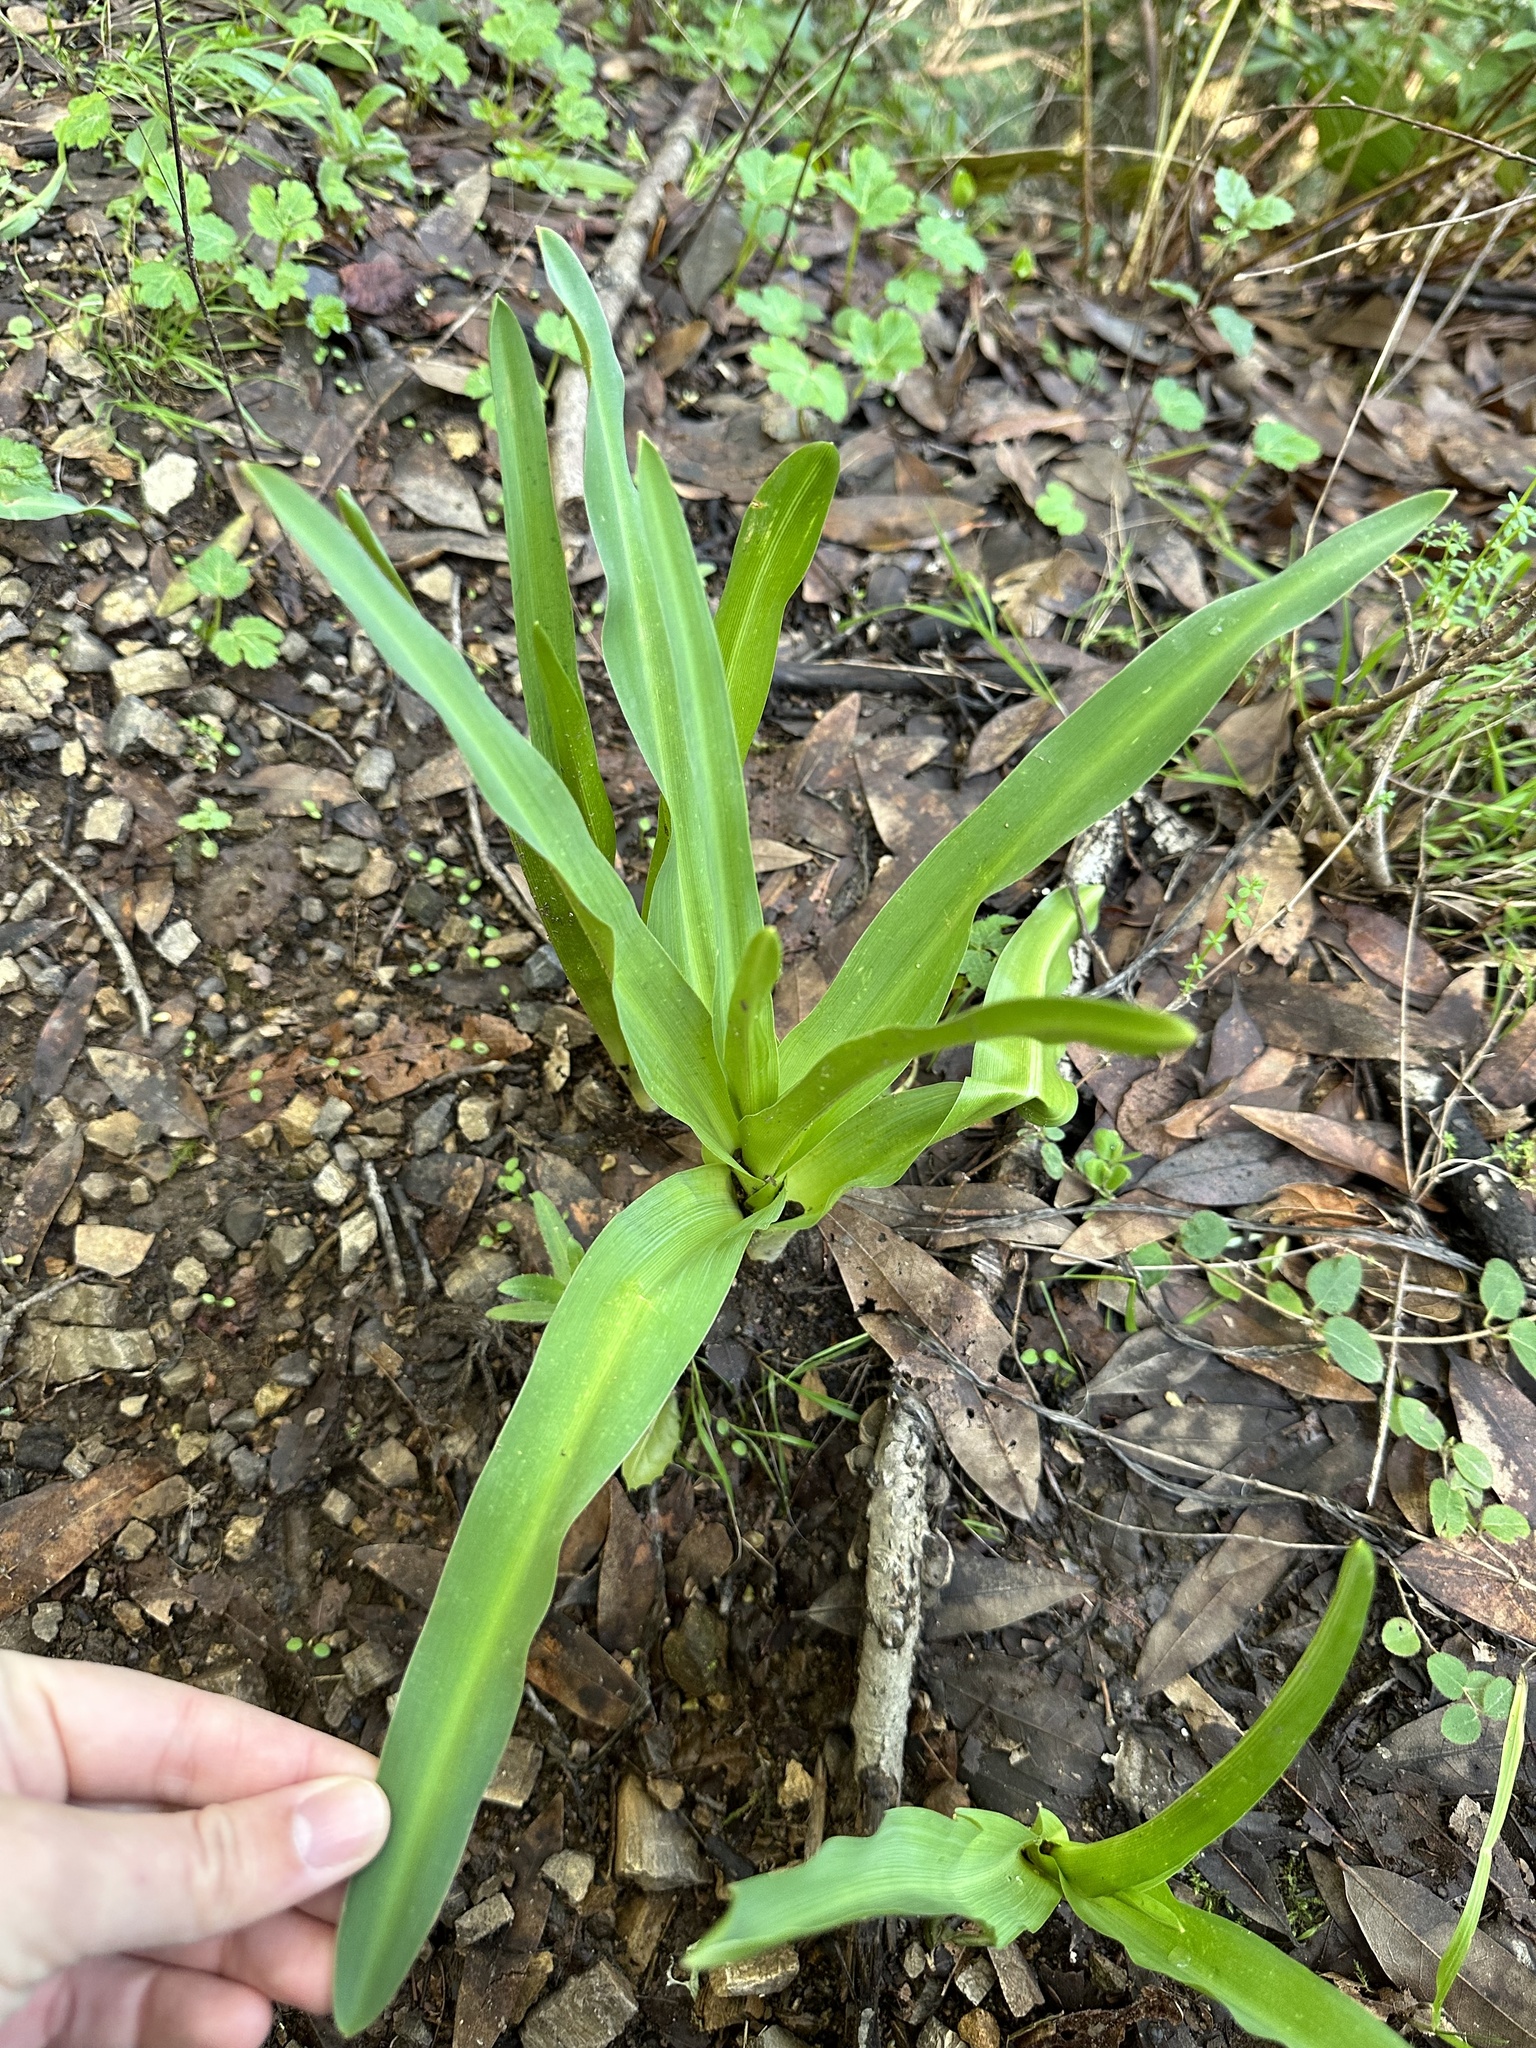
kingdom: Plantae
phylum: Tracheophyta
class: Liliopsida
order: Asparagales
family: Asparagaceae
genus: Chlorogalum
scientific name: Chlorogalum pomeridianum
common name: Amole
